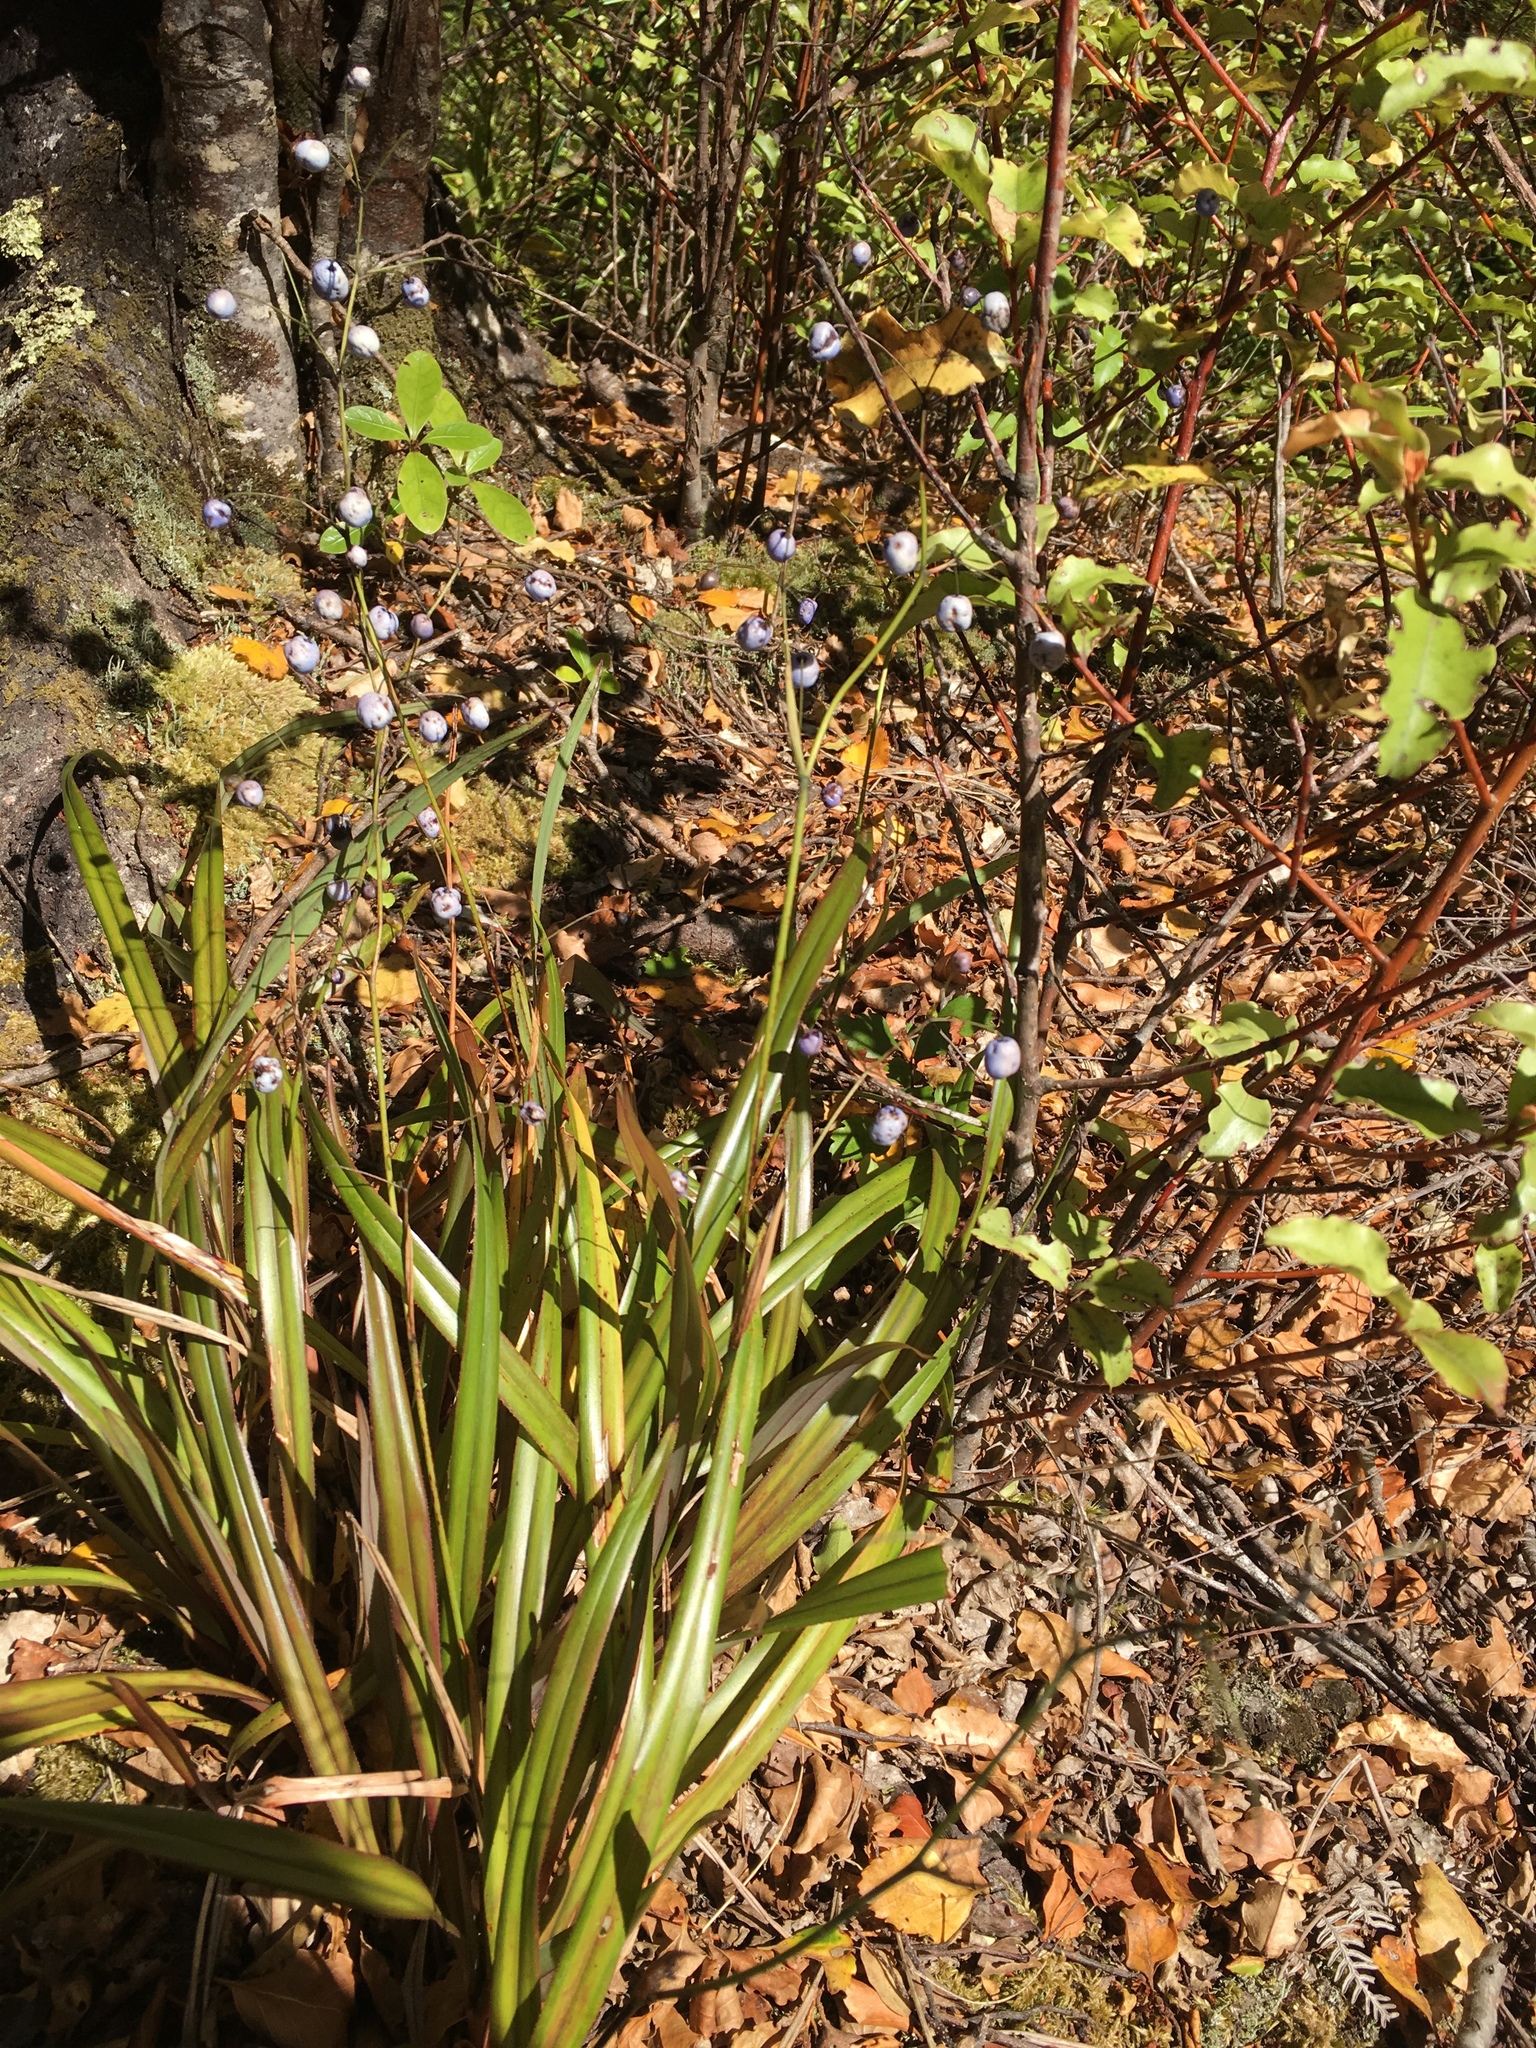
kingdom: Plantae
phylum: Tracheophyta
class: Liliopsida
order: Asparagales
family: Asphodelaceae
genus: Dianella
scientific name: Dianella nigra
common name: New zealand-blueberry
